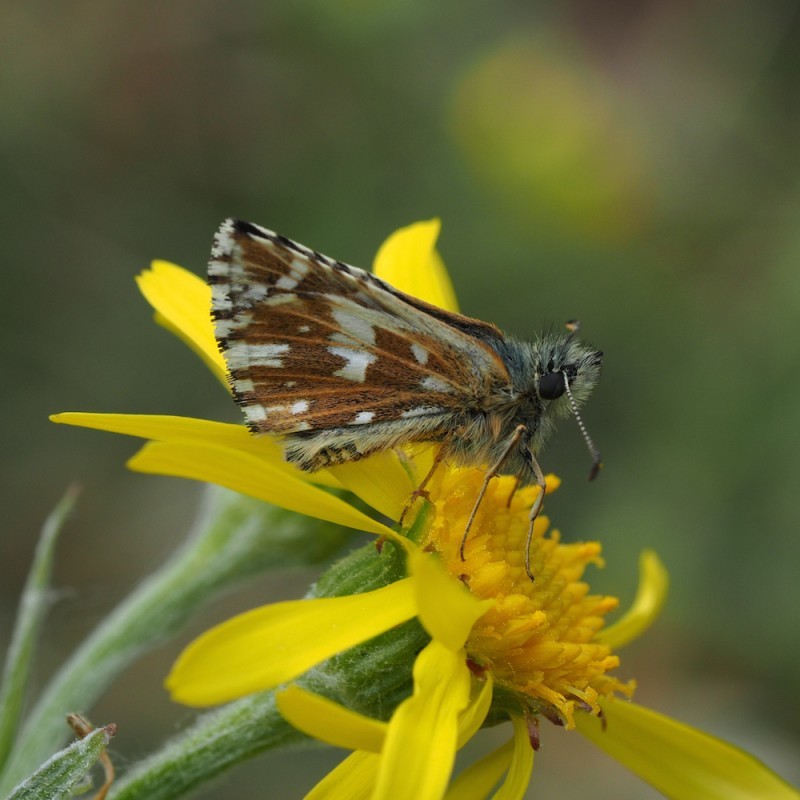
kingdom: Animalia
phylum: Arthropoda
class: Insecta
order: Lepidoptera
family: Hesperiidae
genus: Pyrgus
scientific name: Pyrgus malvae
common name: Grizzled skipper
